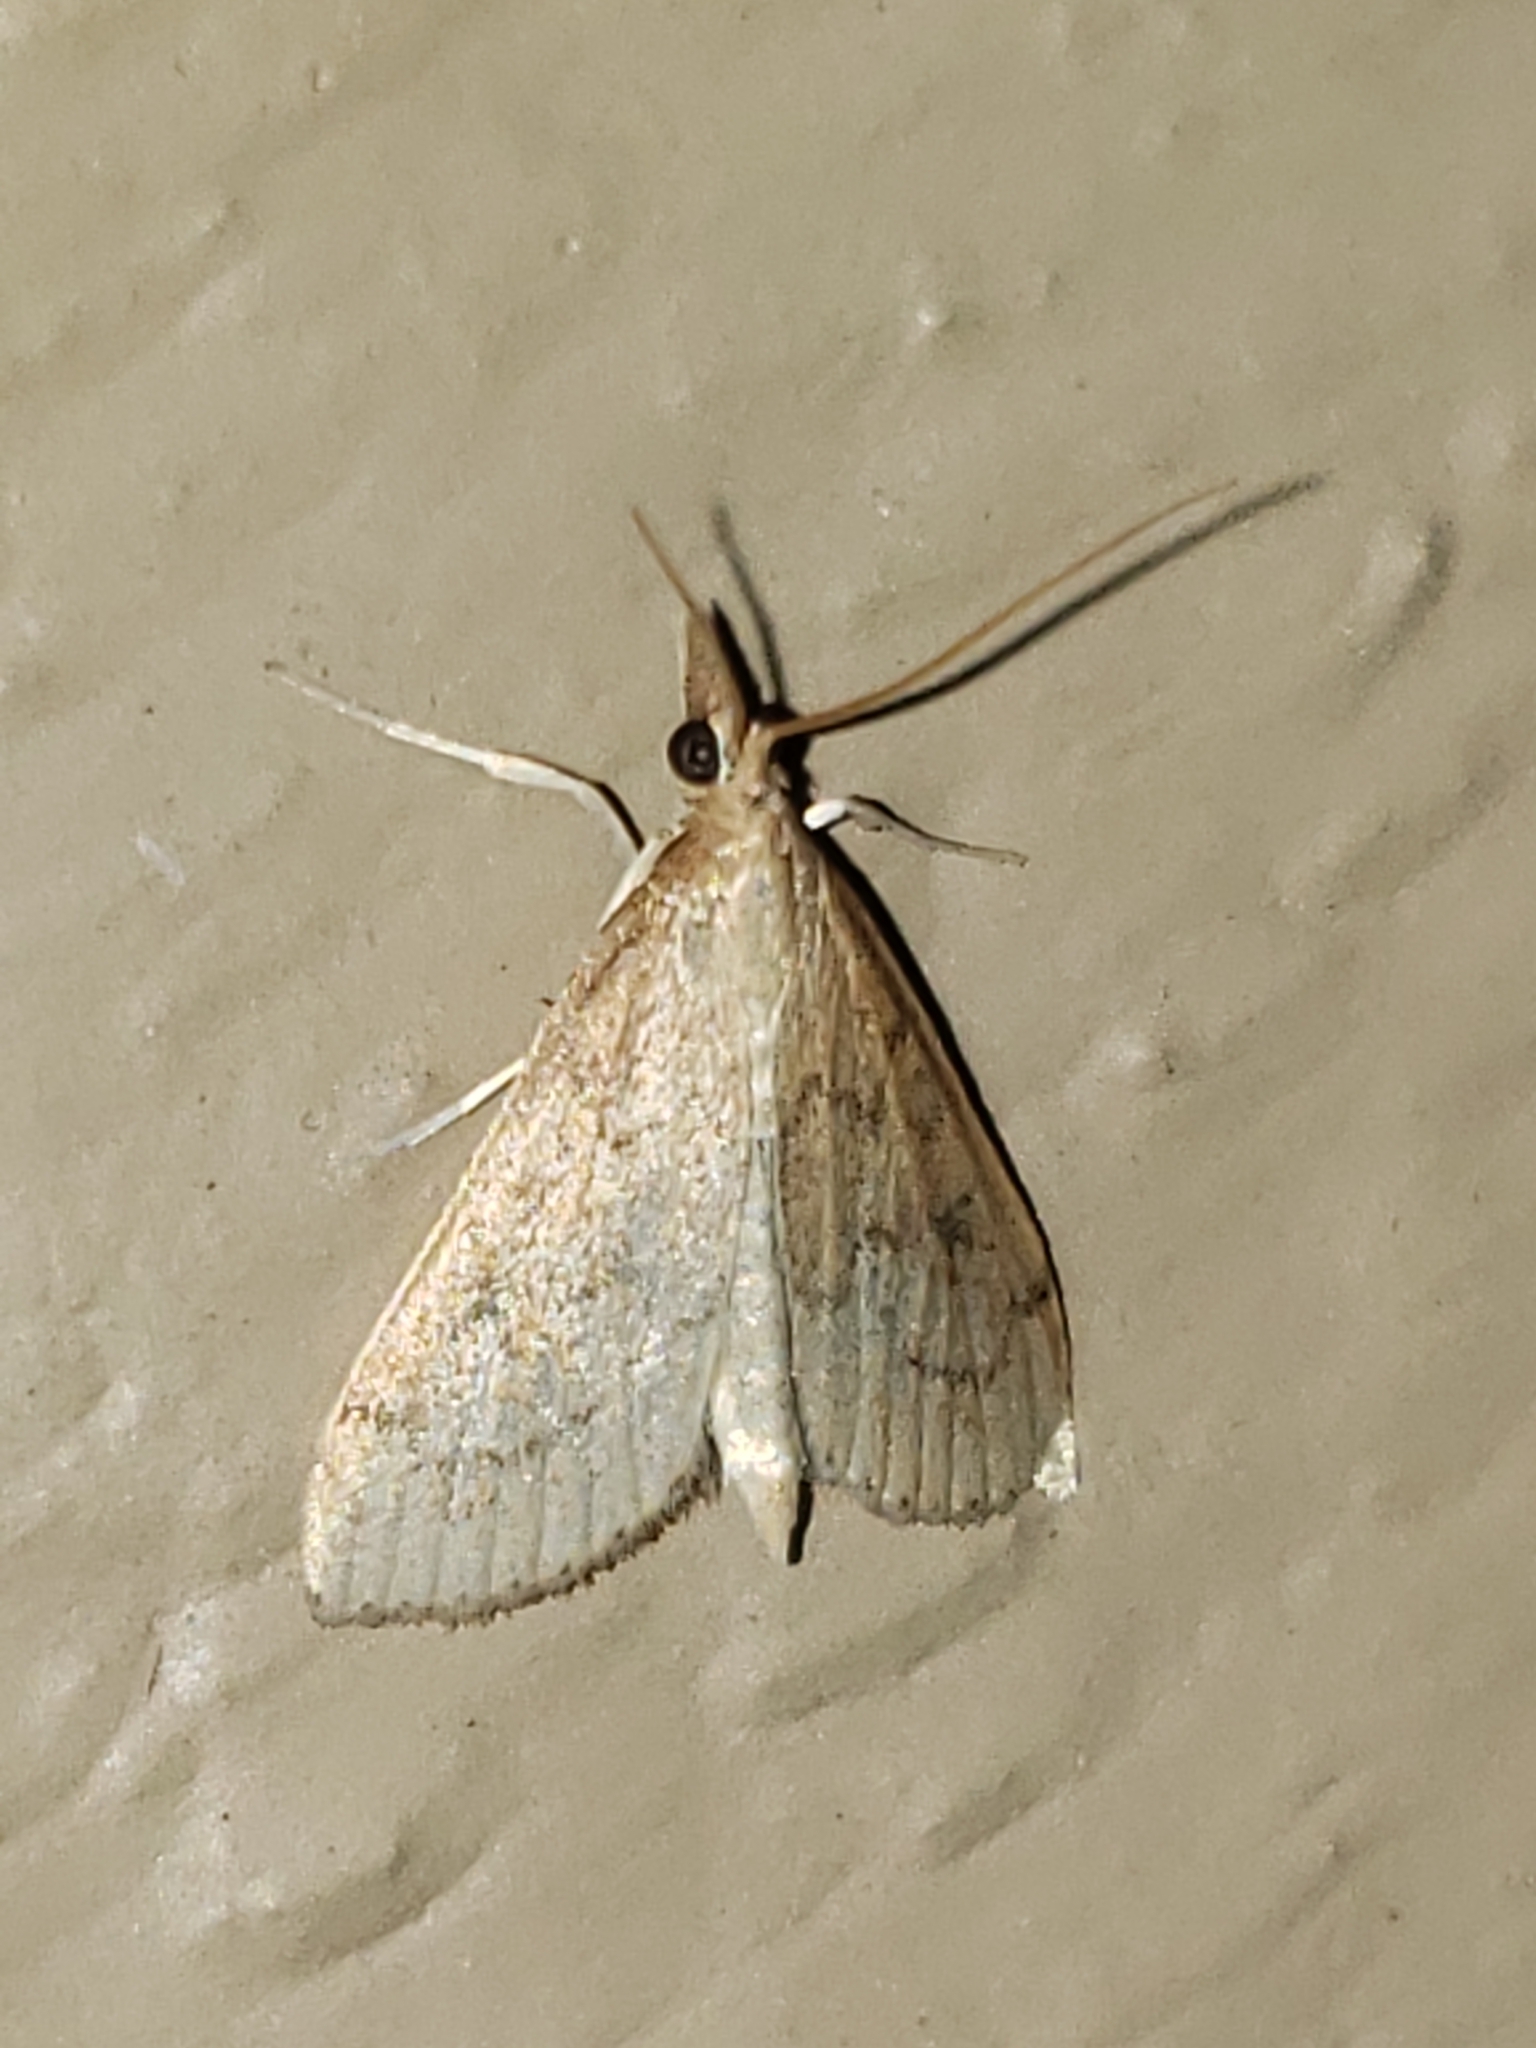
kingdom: Animalia
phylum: Arthropoda
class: Insecta
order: Lepidoptera
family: Crambidae
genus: Udea
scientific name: Udea rubigalis
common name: Celery leaftier moth
